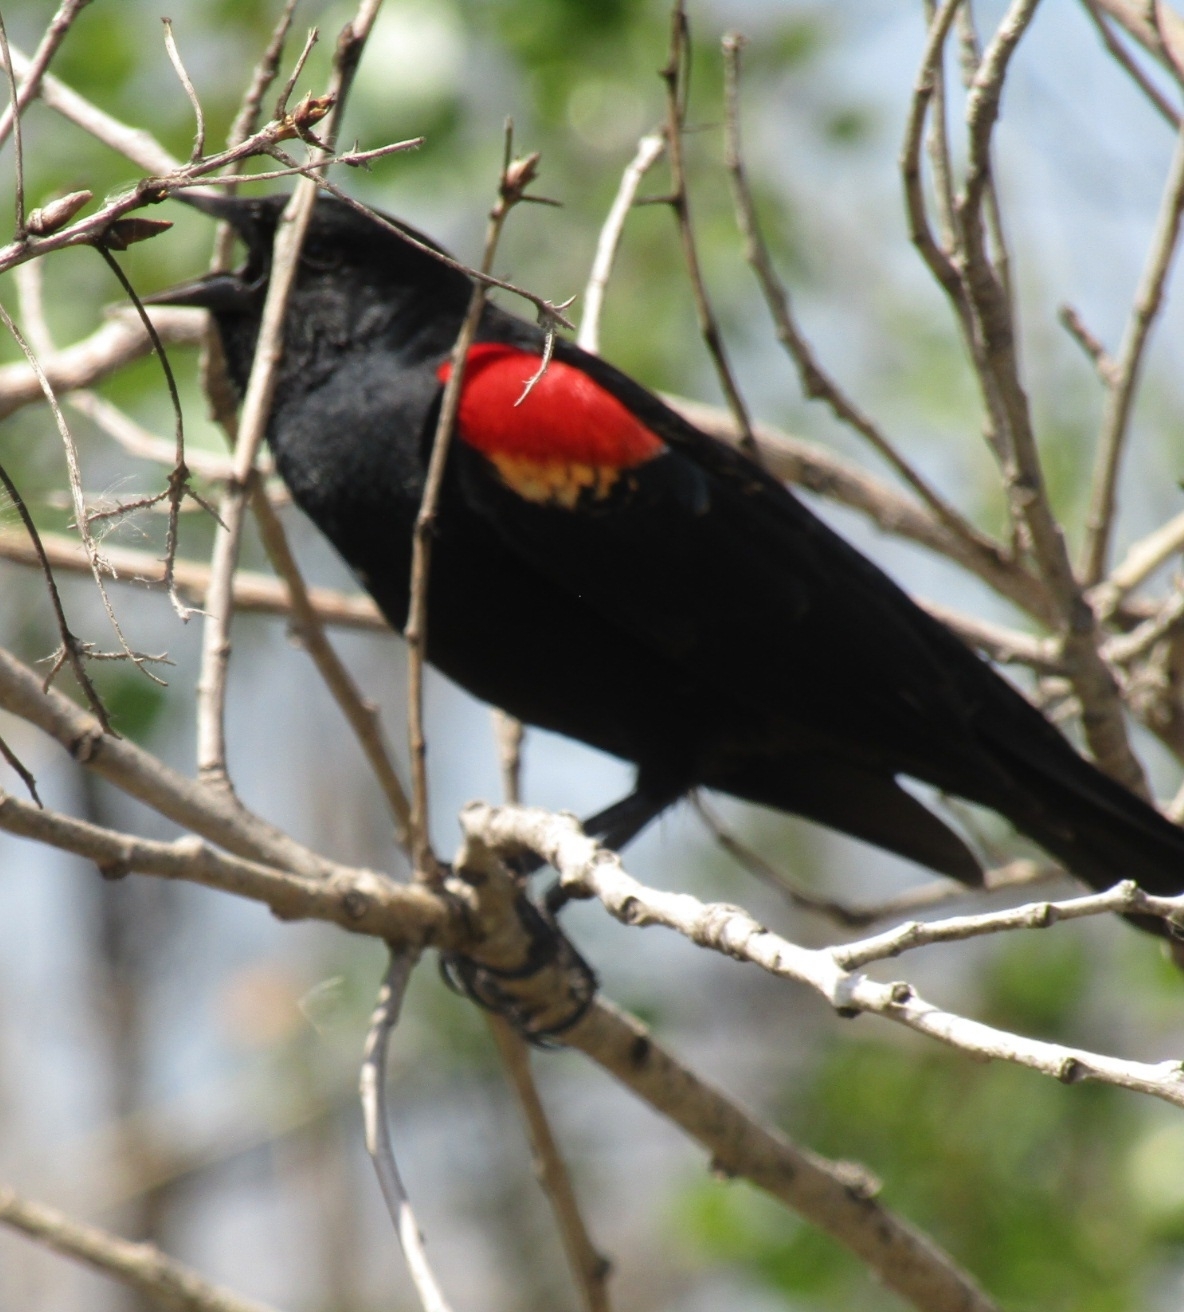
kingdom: Animalia
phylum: Chordata
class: Aves
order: Passeriformes
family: Icteridae
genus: Agelaius
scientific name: Agelaius phoeniceus
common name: Red-winged blackbird
